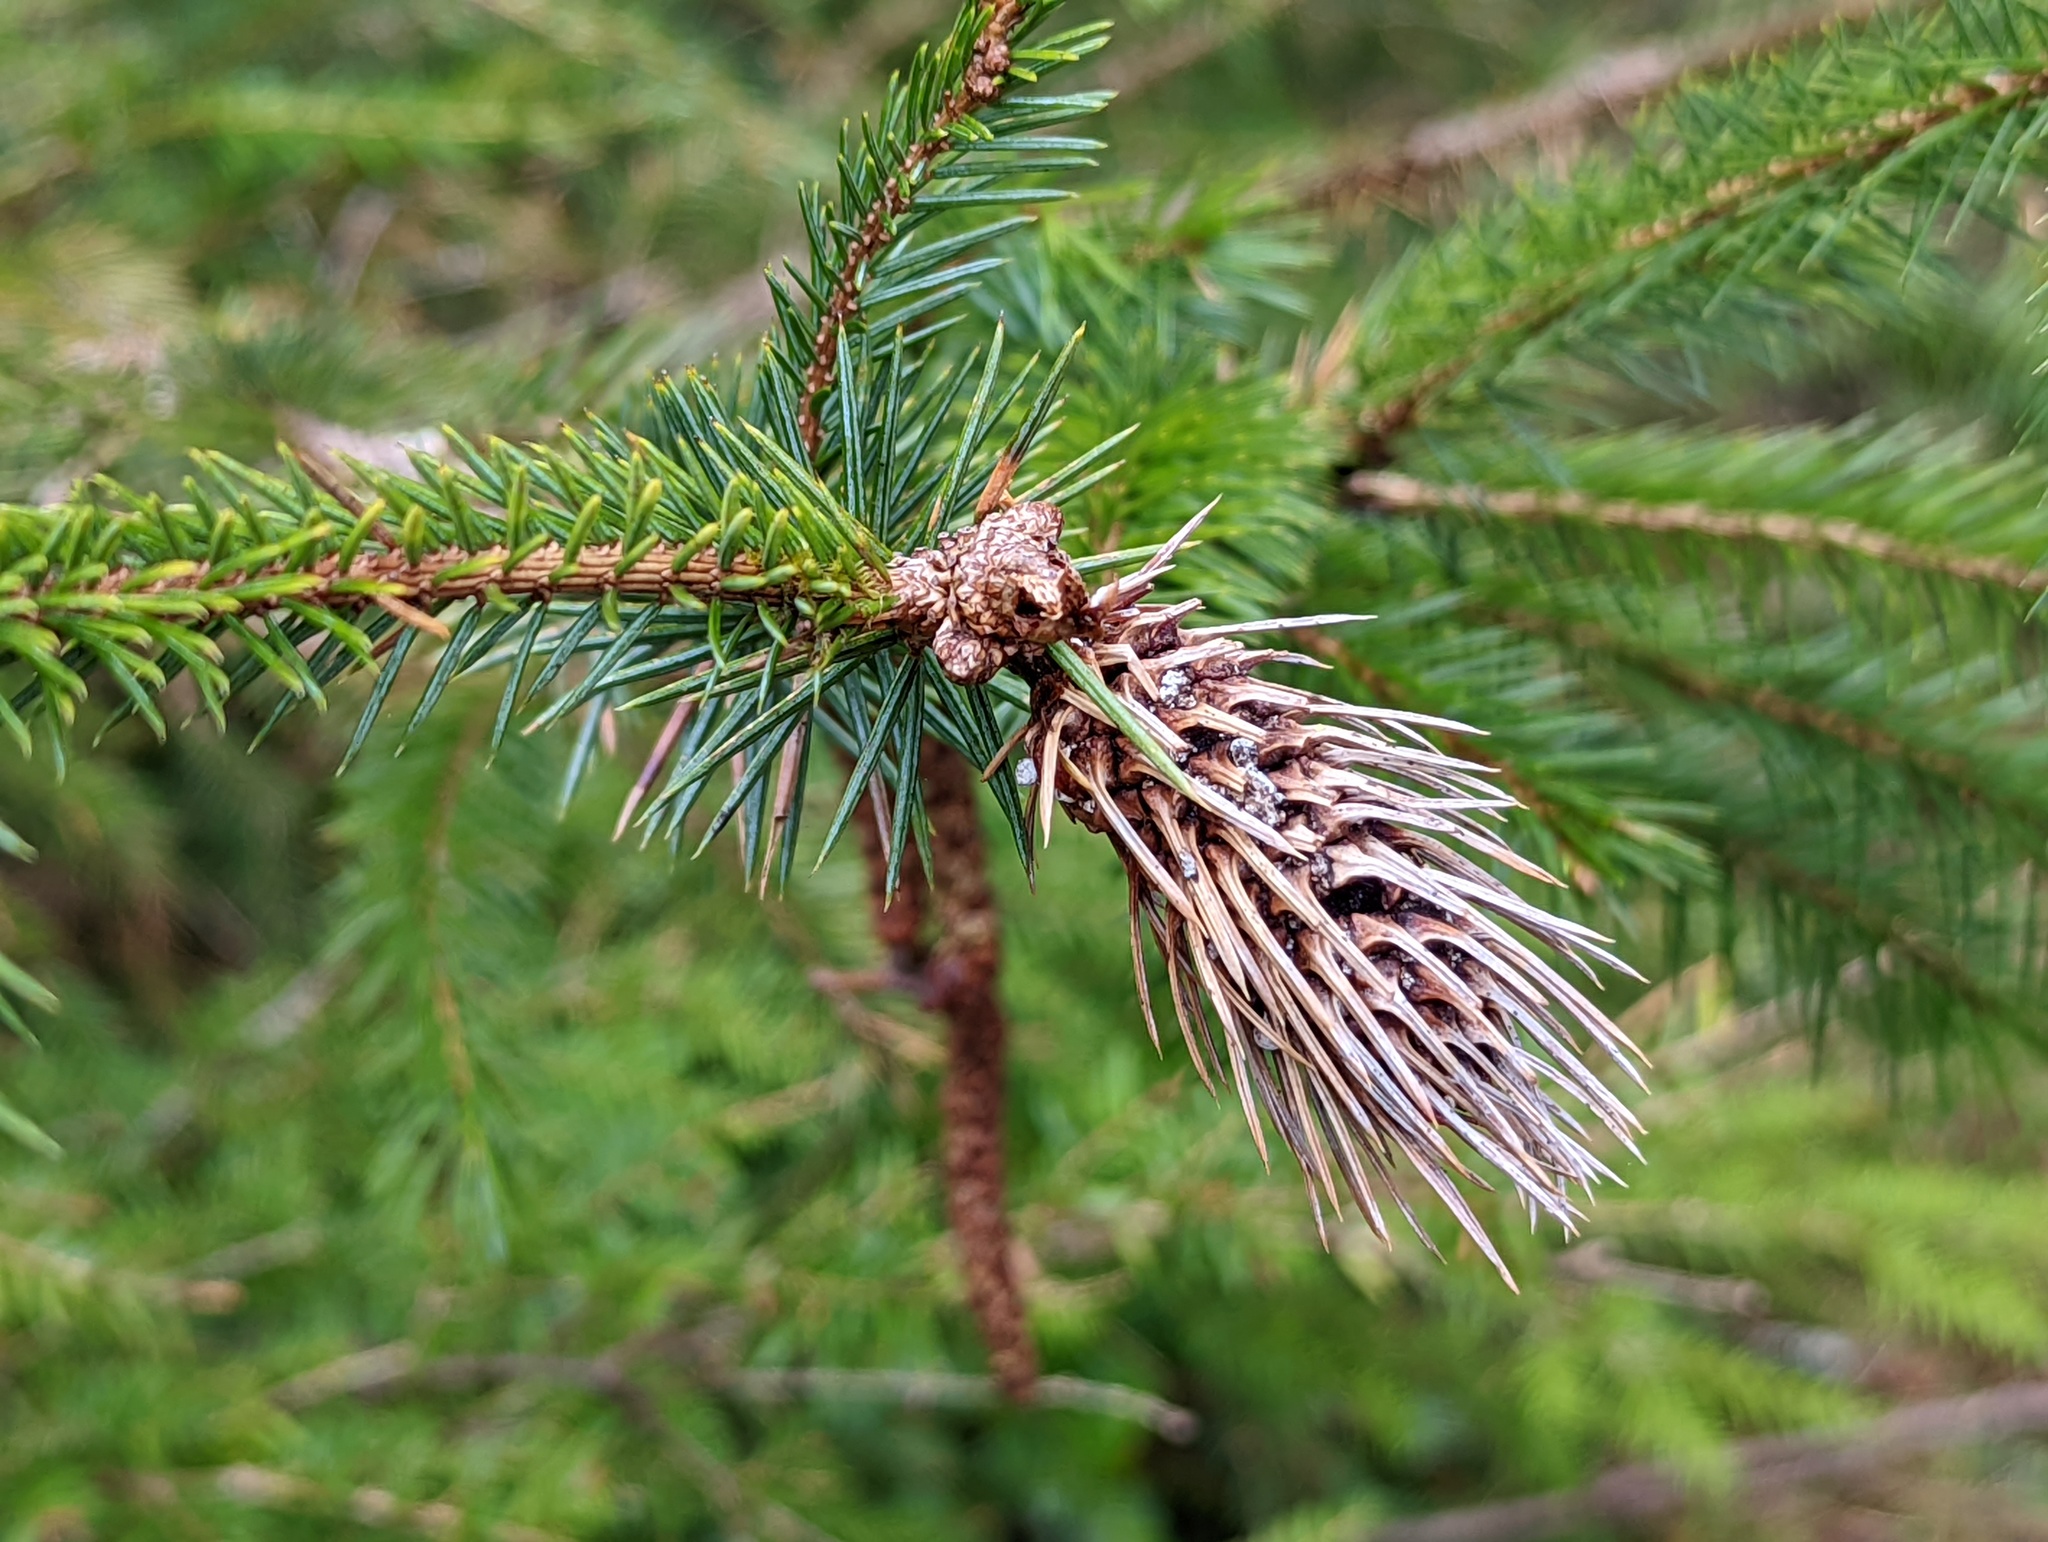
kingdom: Animalia
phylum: Arthropoda
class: Insecta
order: Hemiptera
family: Adelgidae
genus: Adelges
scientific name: Adelges cooleyi
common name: Cooley spruce gall adelgid
